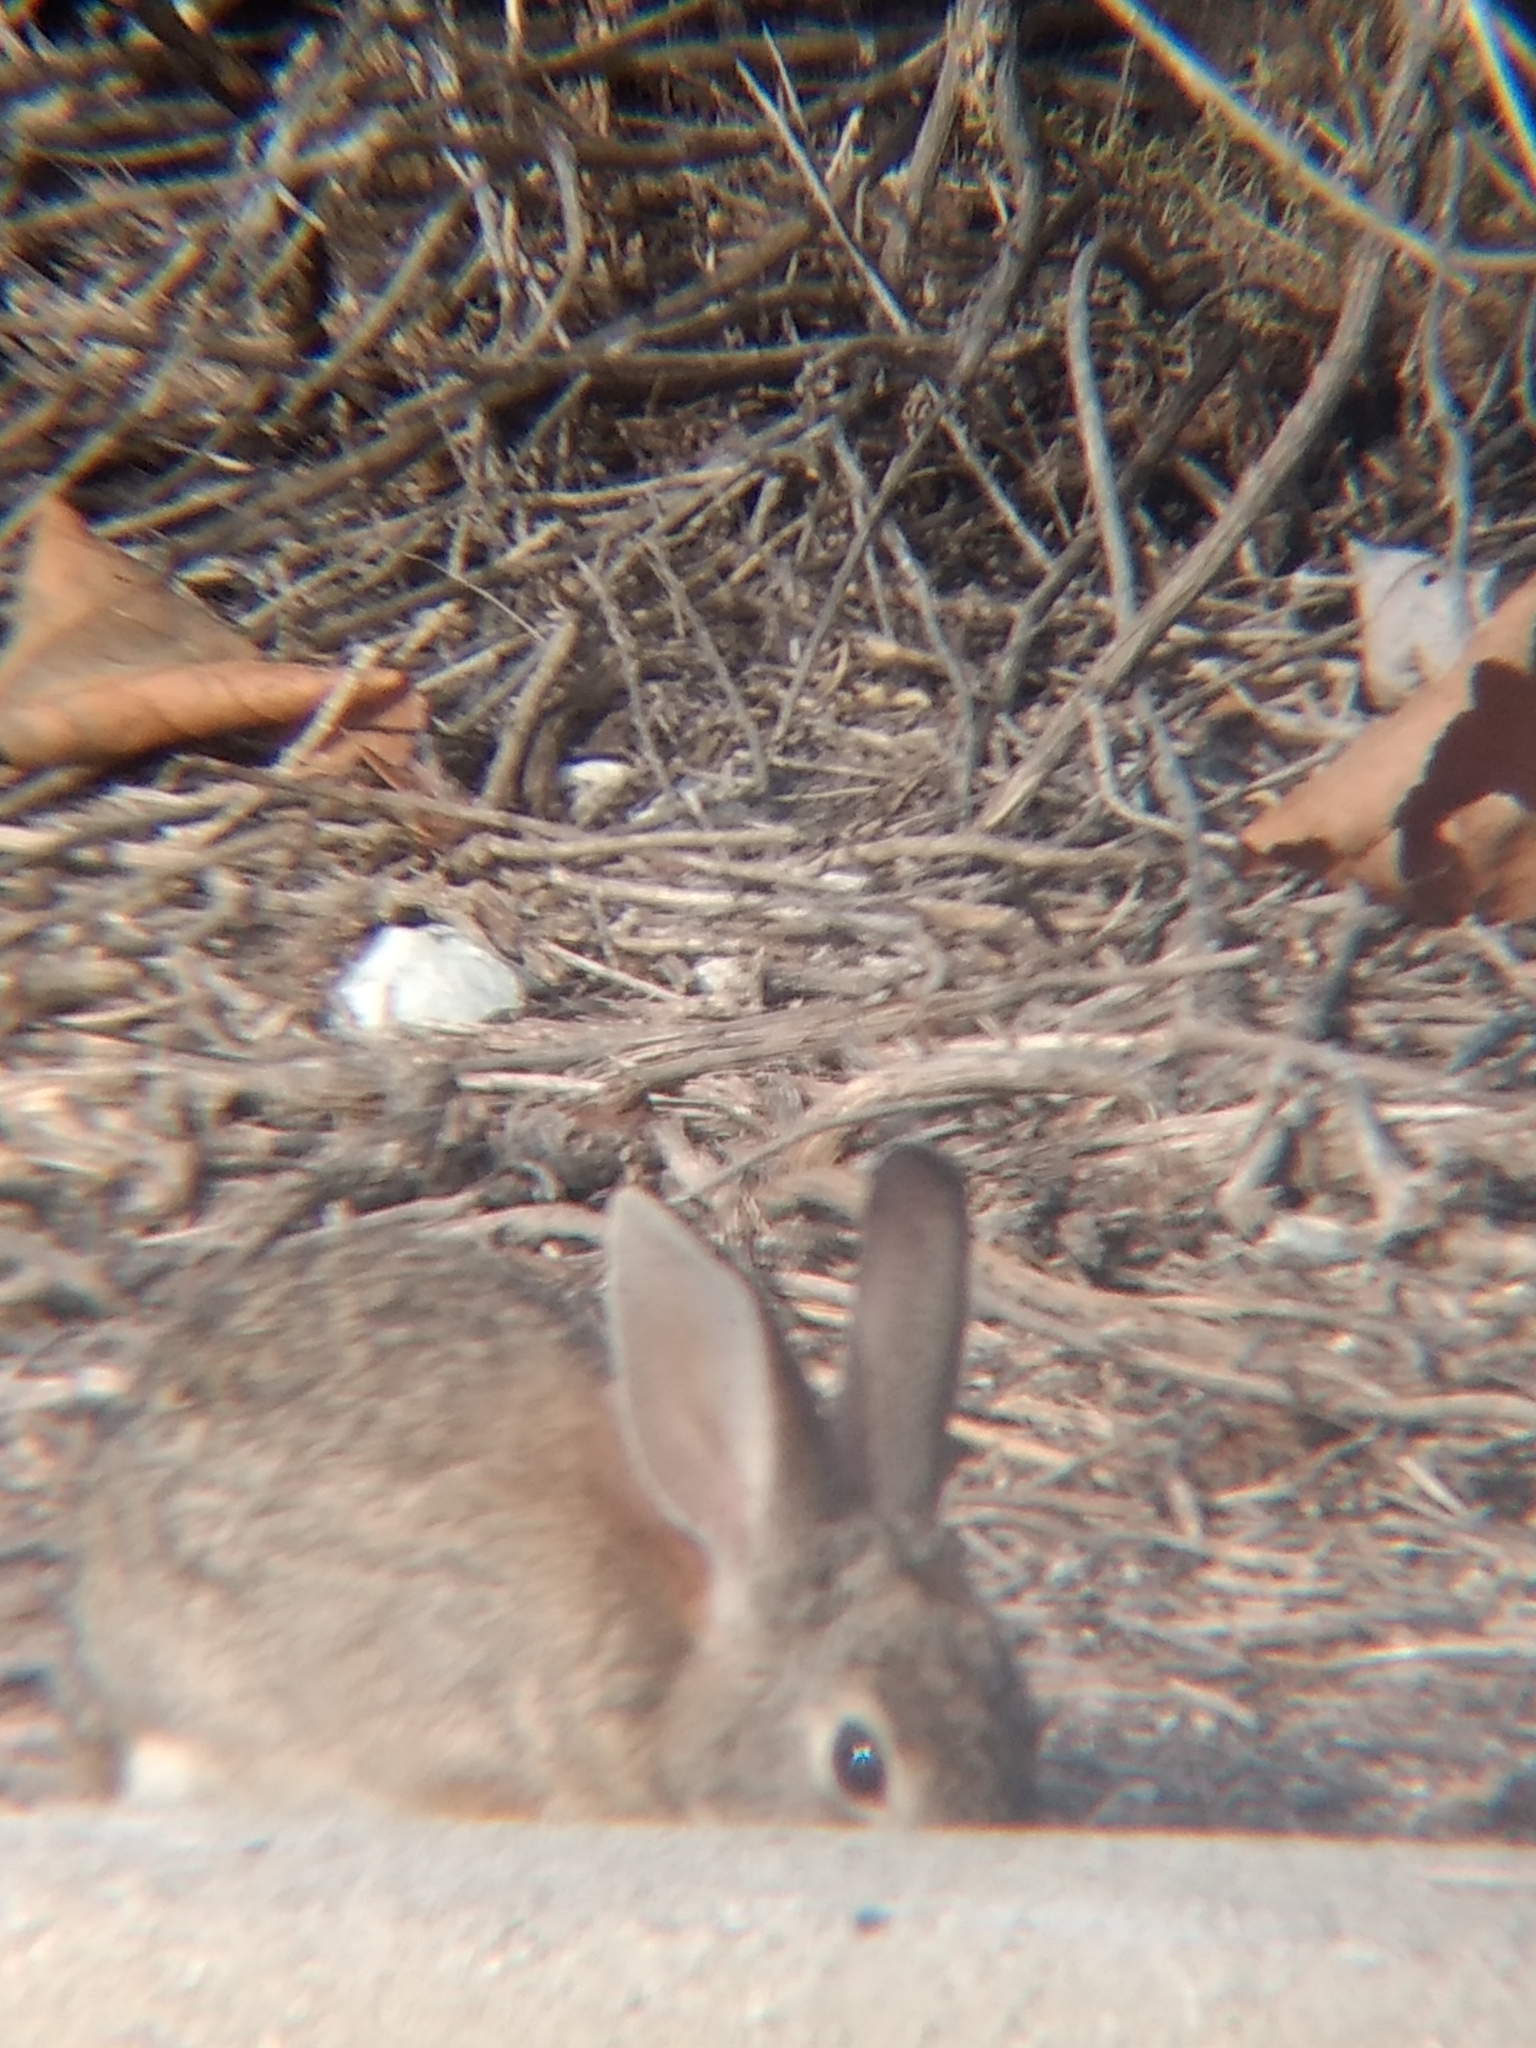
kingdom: Animalia
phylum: Chordata
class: Mammalia
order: Lagomorpha
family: Leporidae
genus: Sylvilagus
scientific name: Sylvilagus audubonii
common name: Desert cottontail
